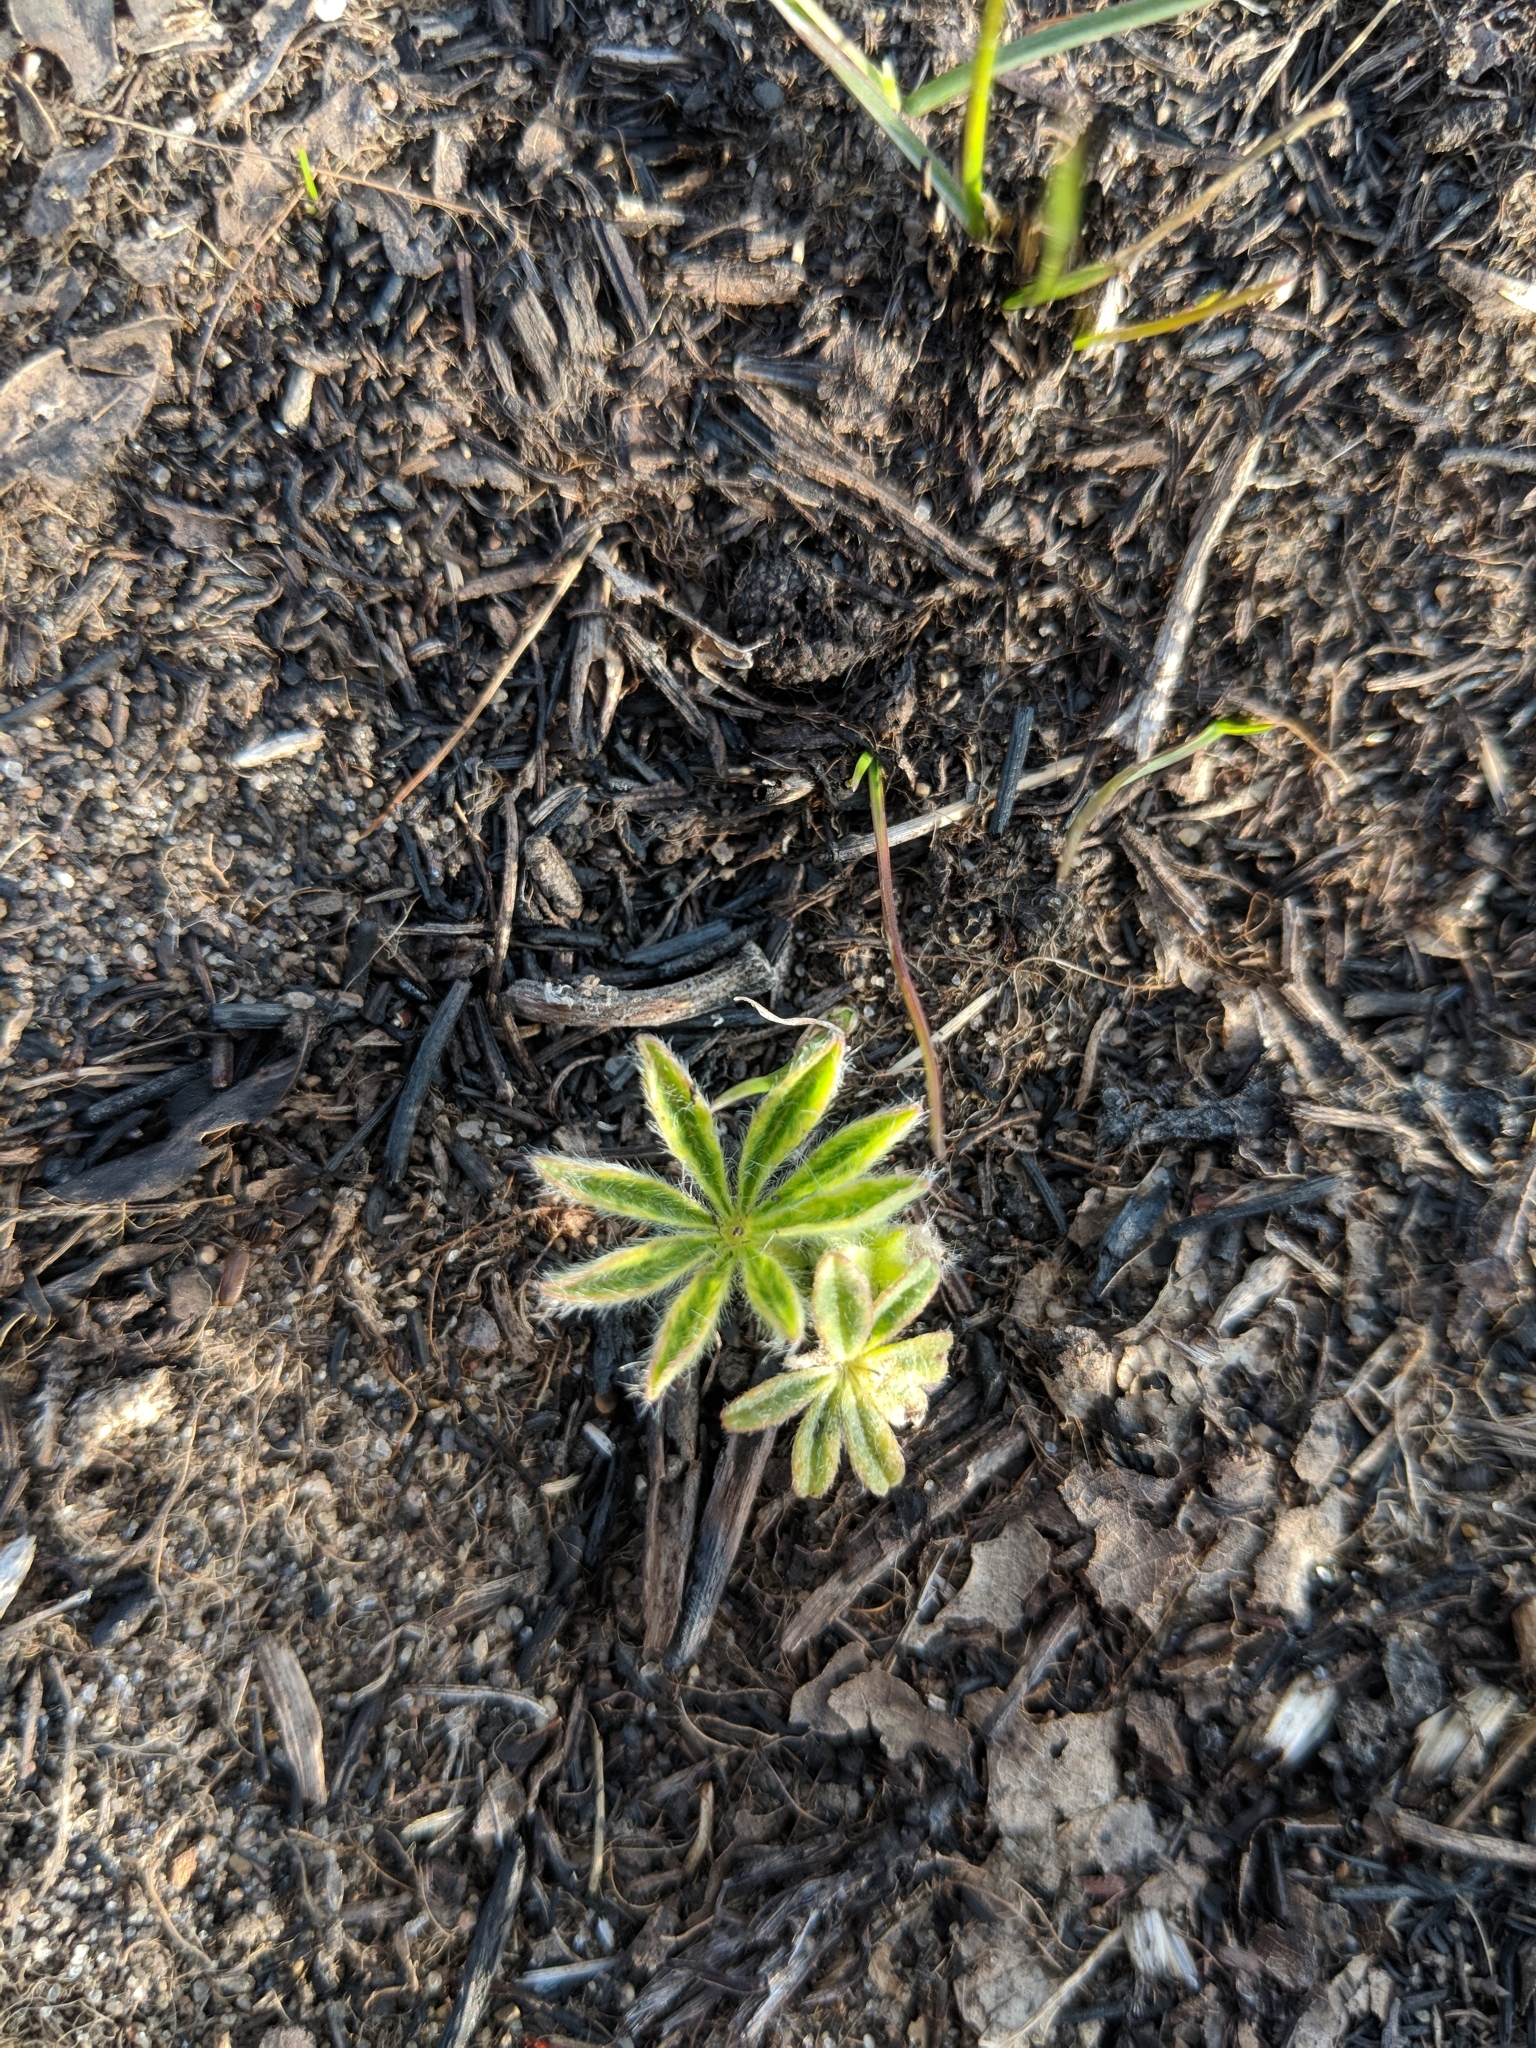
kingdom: Plantae
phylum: Tracheophyta
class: Magnoliopsida
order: Fabales
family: Fabaceae
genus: Lupinus
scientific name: Lupinus perennis
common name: Sundial lupine
